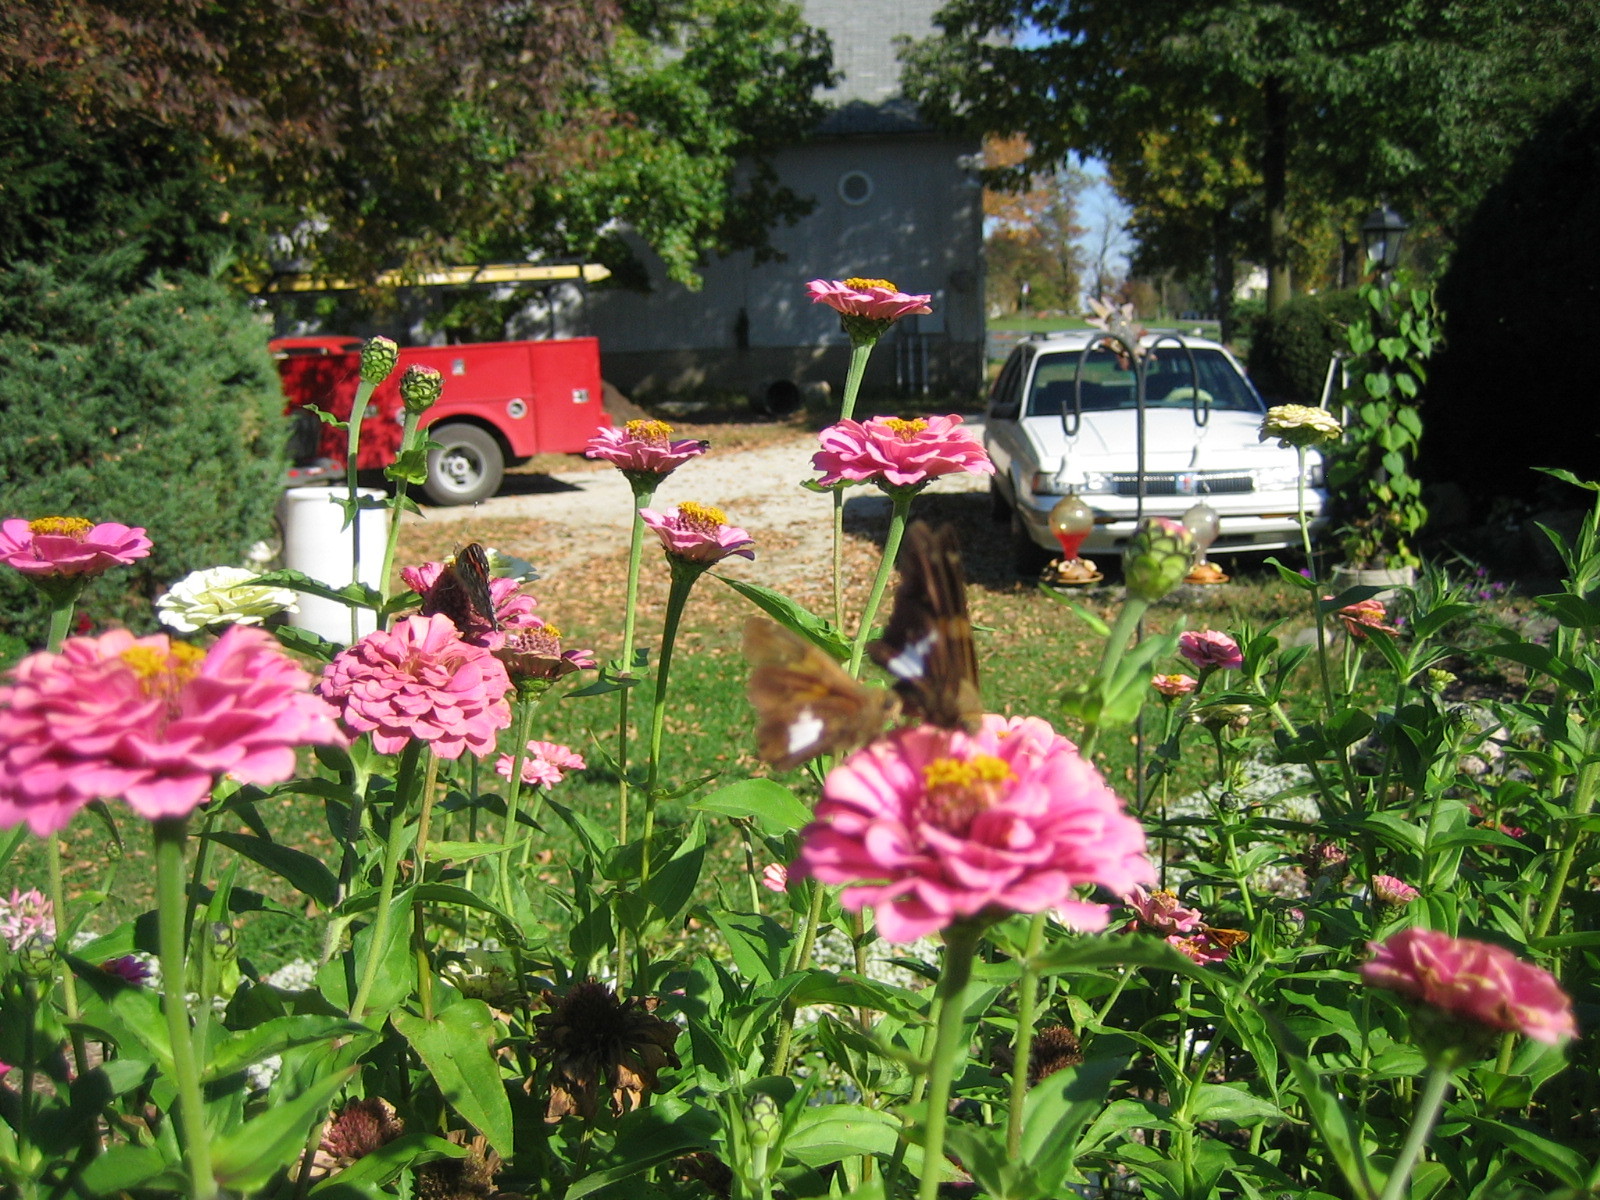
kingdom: Animalia
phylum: Arthropoda
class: Insecta
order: Lepidoptera
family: Hesperiidae
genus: Epargyreus
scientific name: Epargyreus clarus
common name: Silver-spotted skipper
